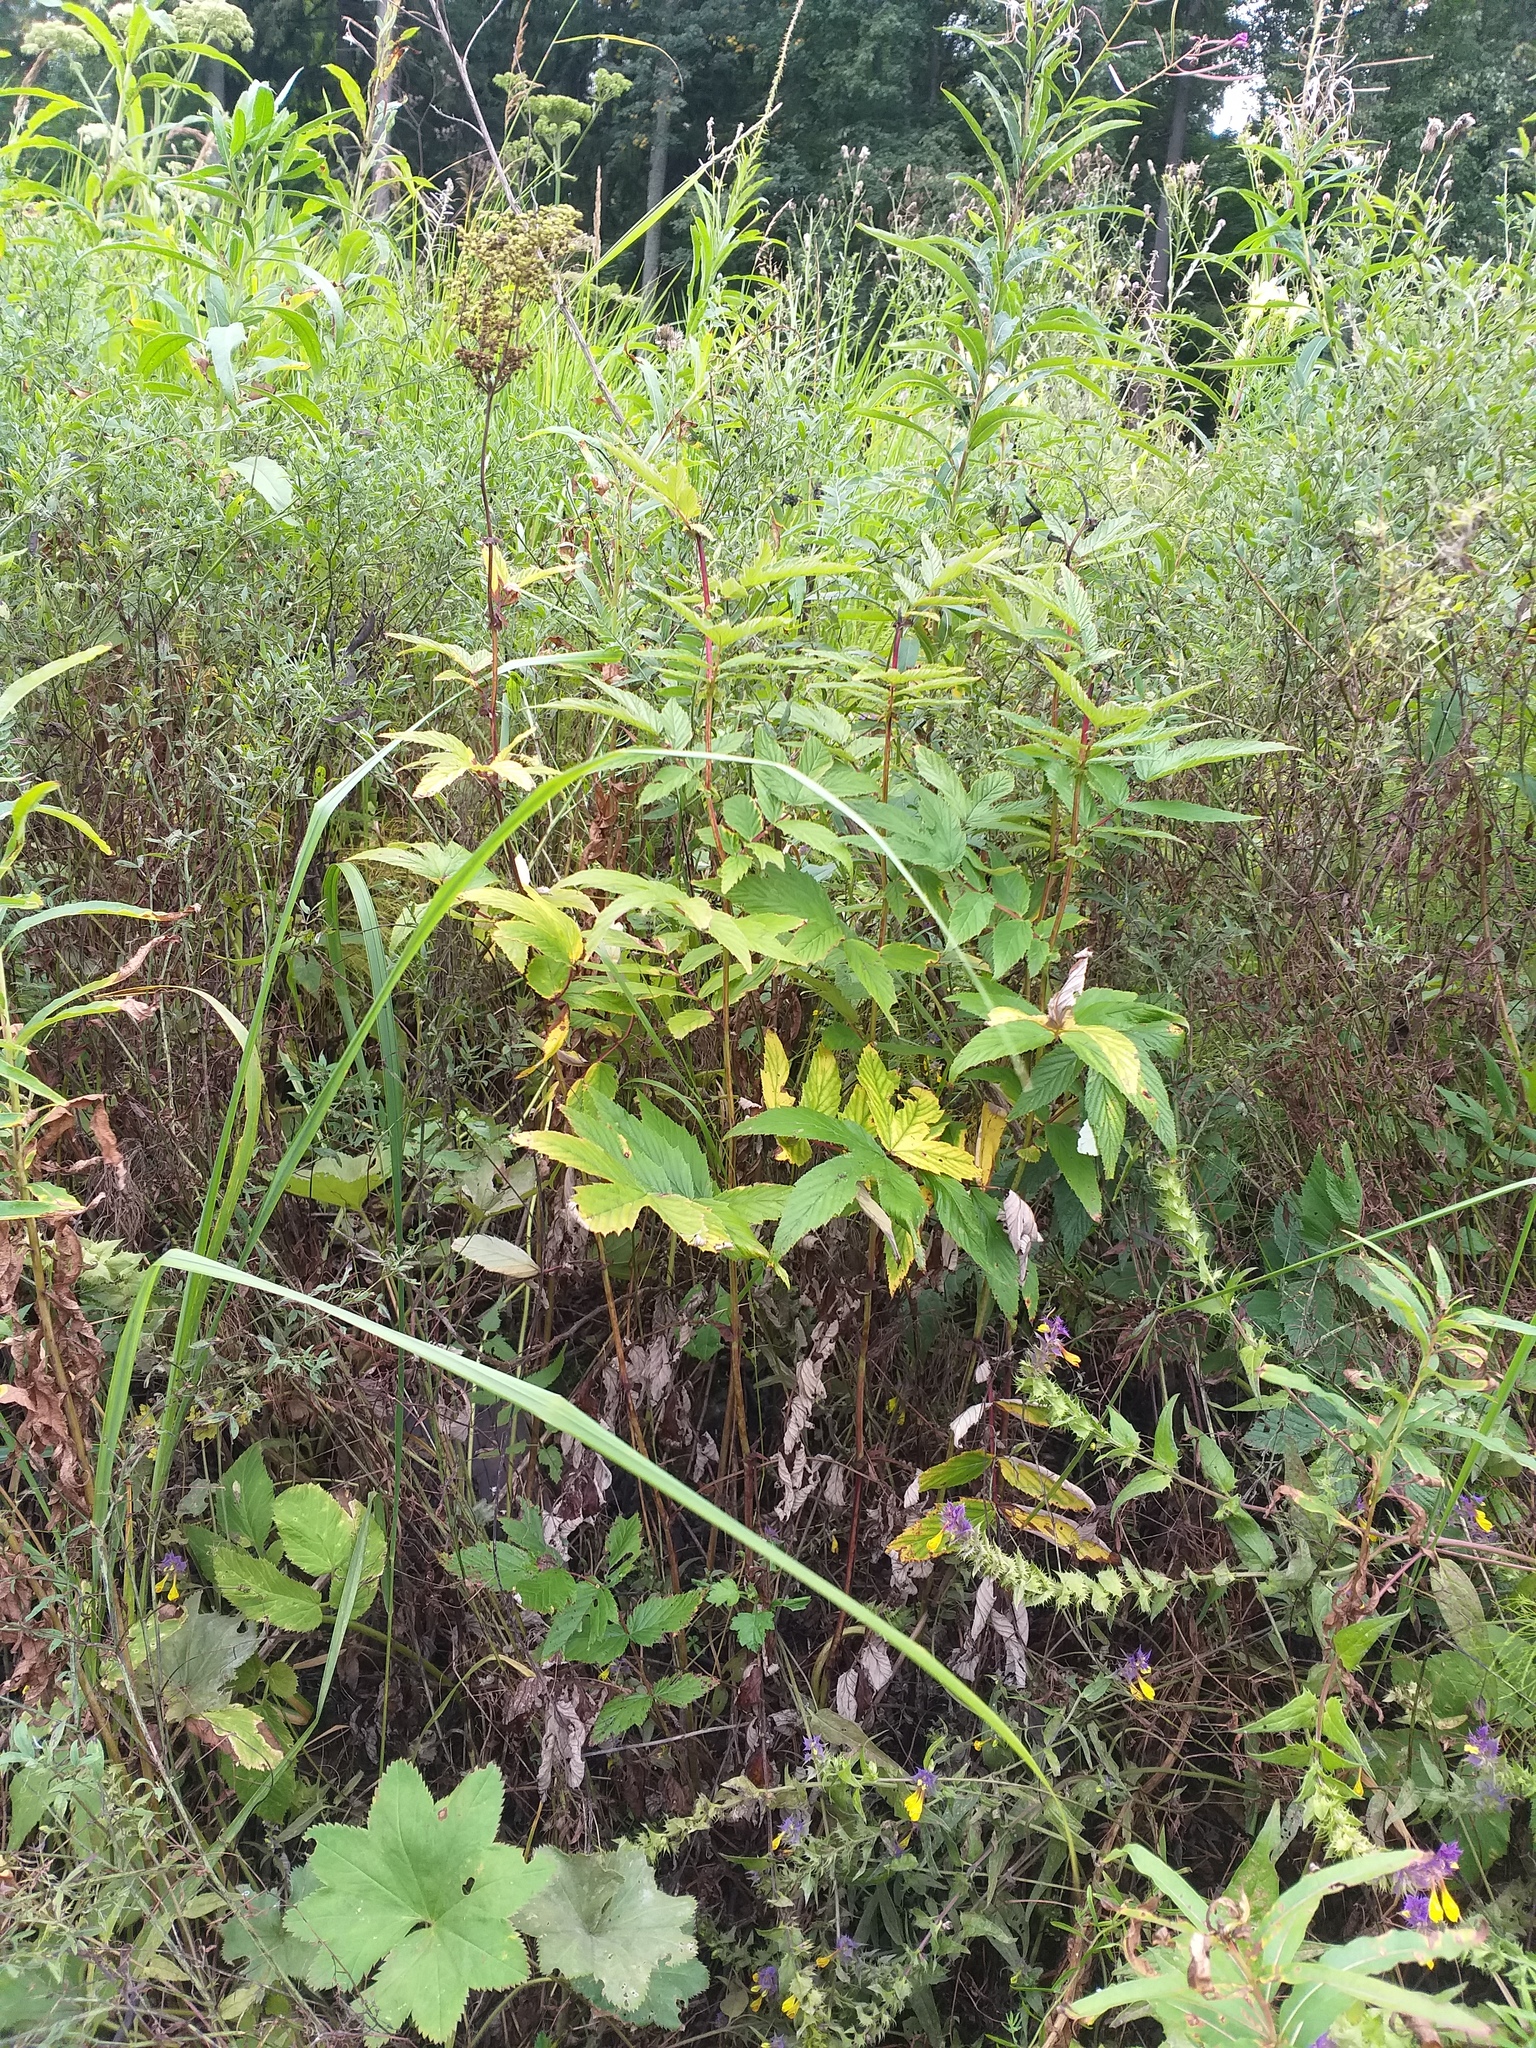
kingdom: Plantae
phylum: Tracheophyta
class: Magnoliopsida
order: Rosales
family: Rosaceae
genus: Filipendula
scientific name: Filipendula ulmaria
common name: Meadowsweet
